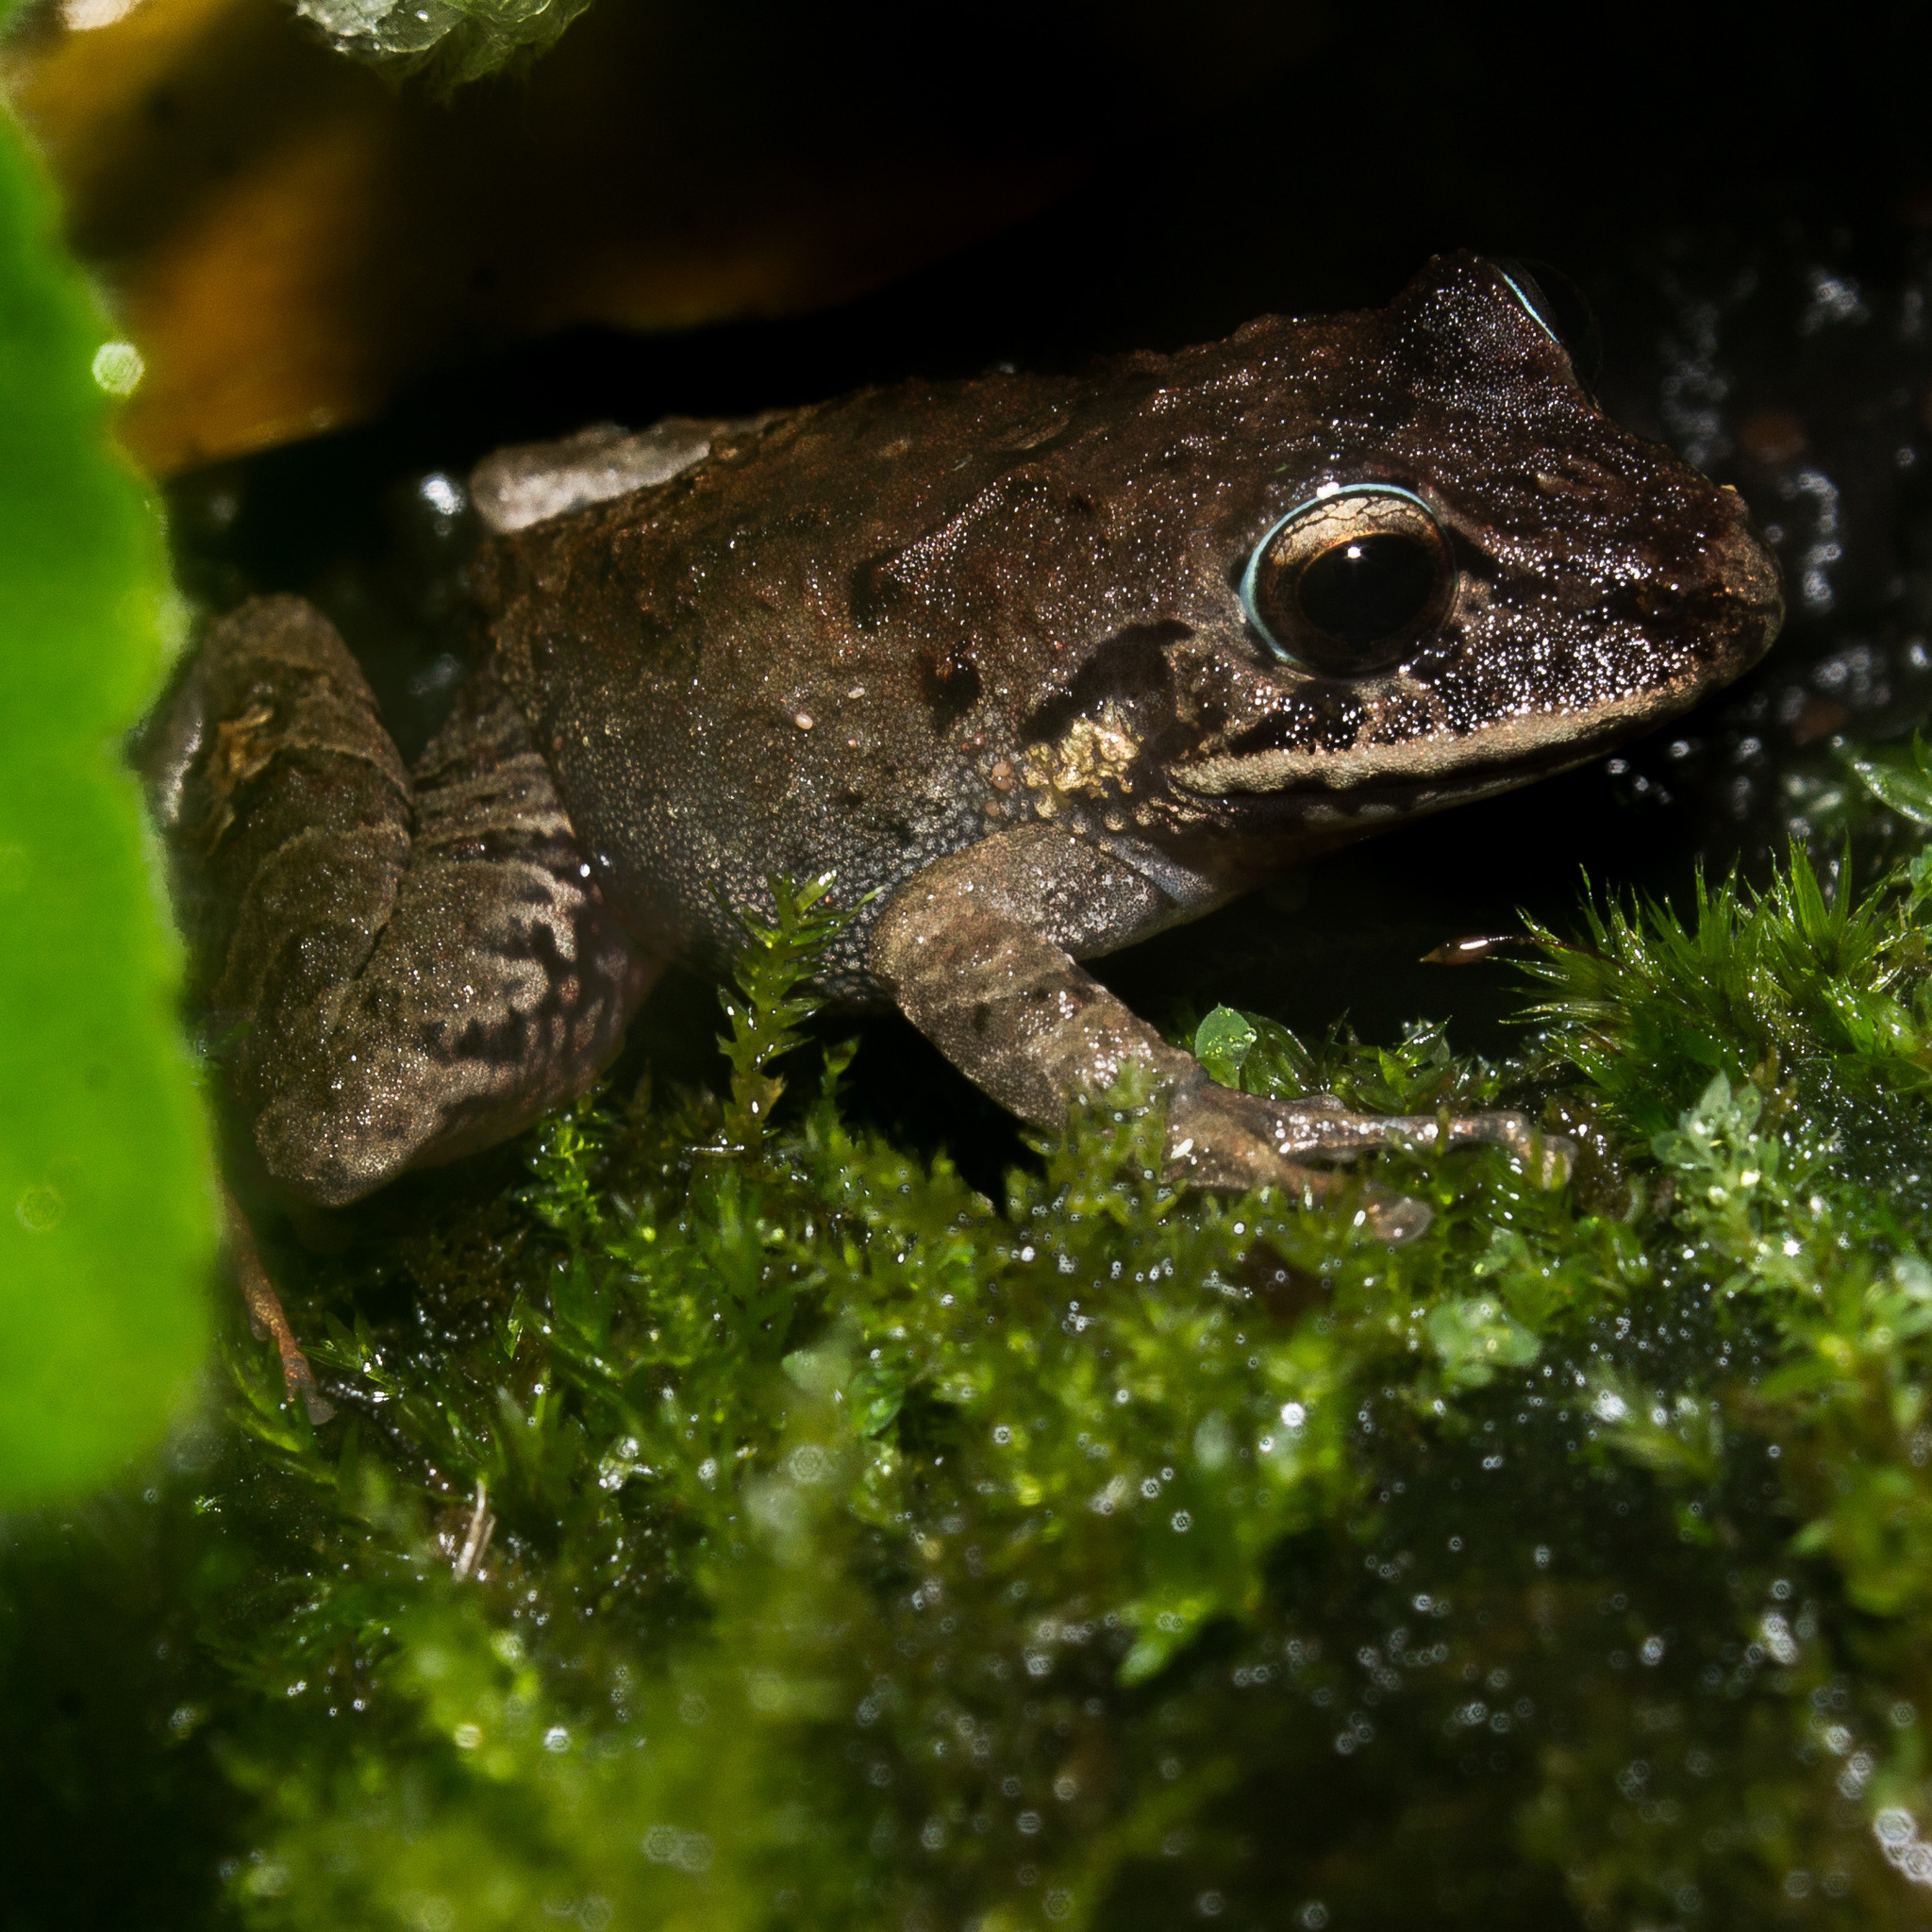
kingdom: Animalia
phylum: Chordata
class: Amphibia
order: Anura
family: Craugastoridae
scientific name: Craugastoridae
